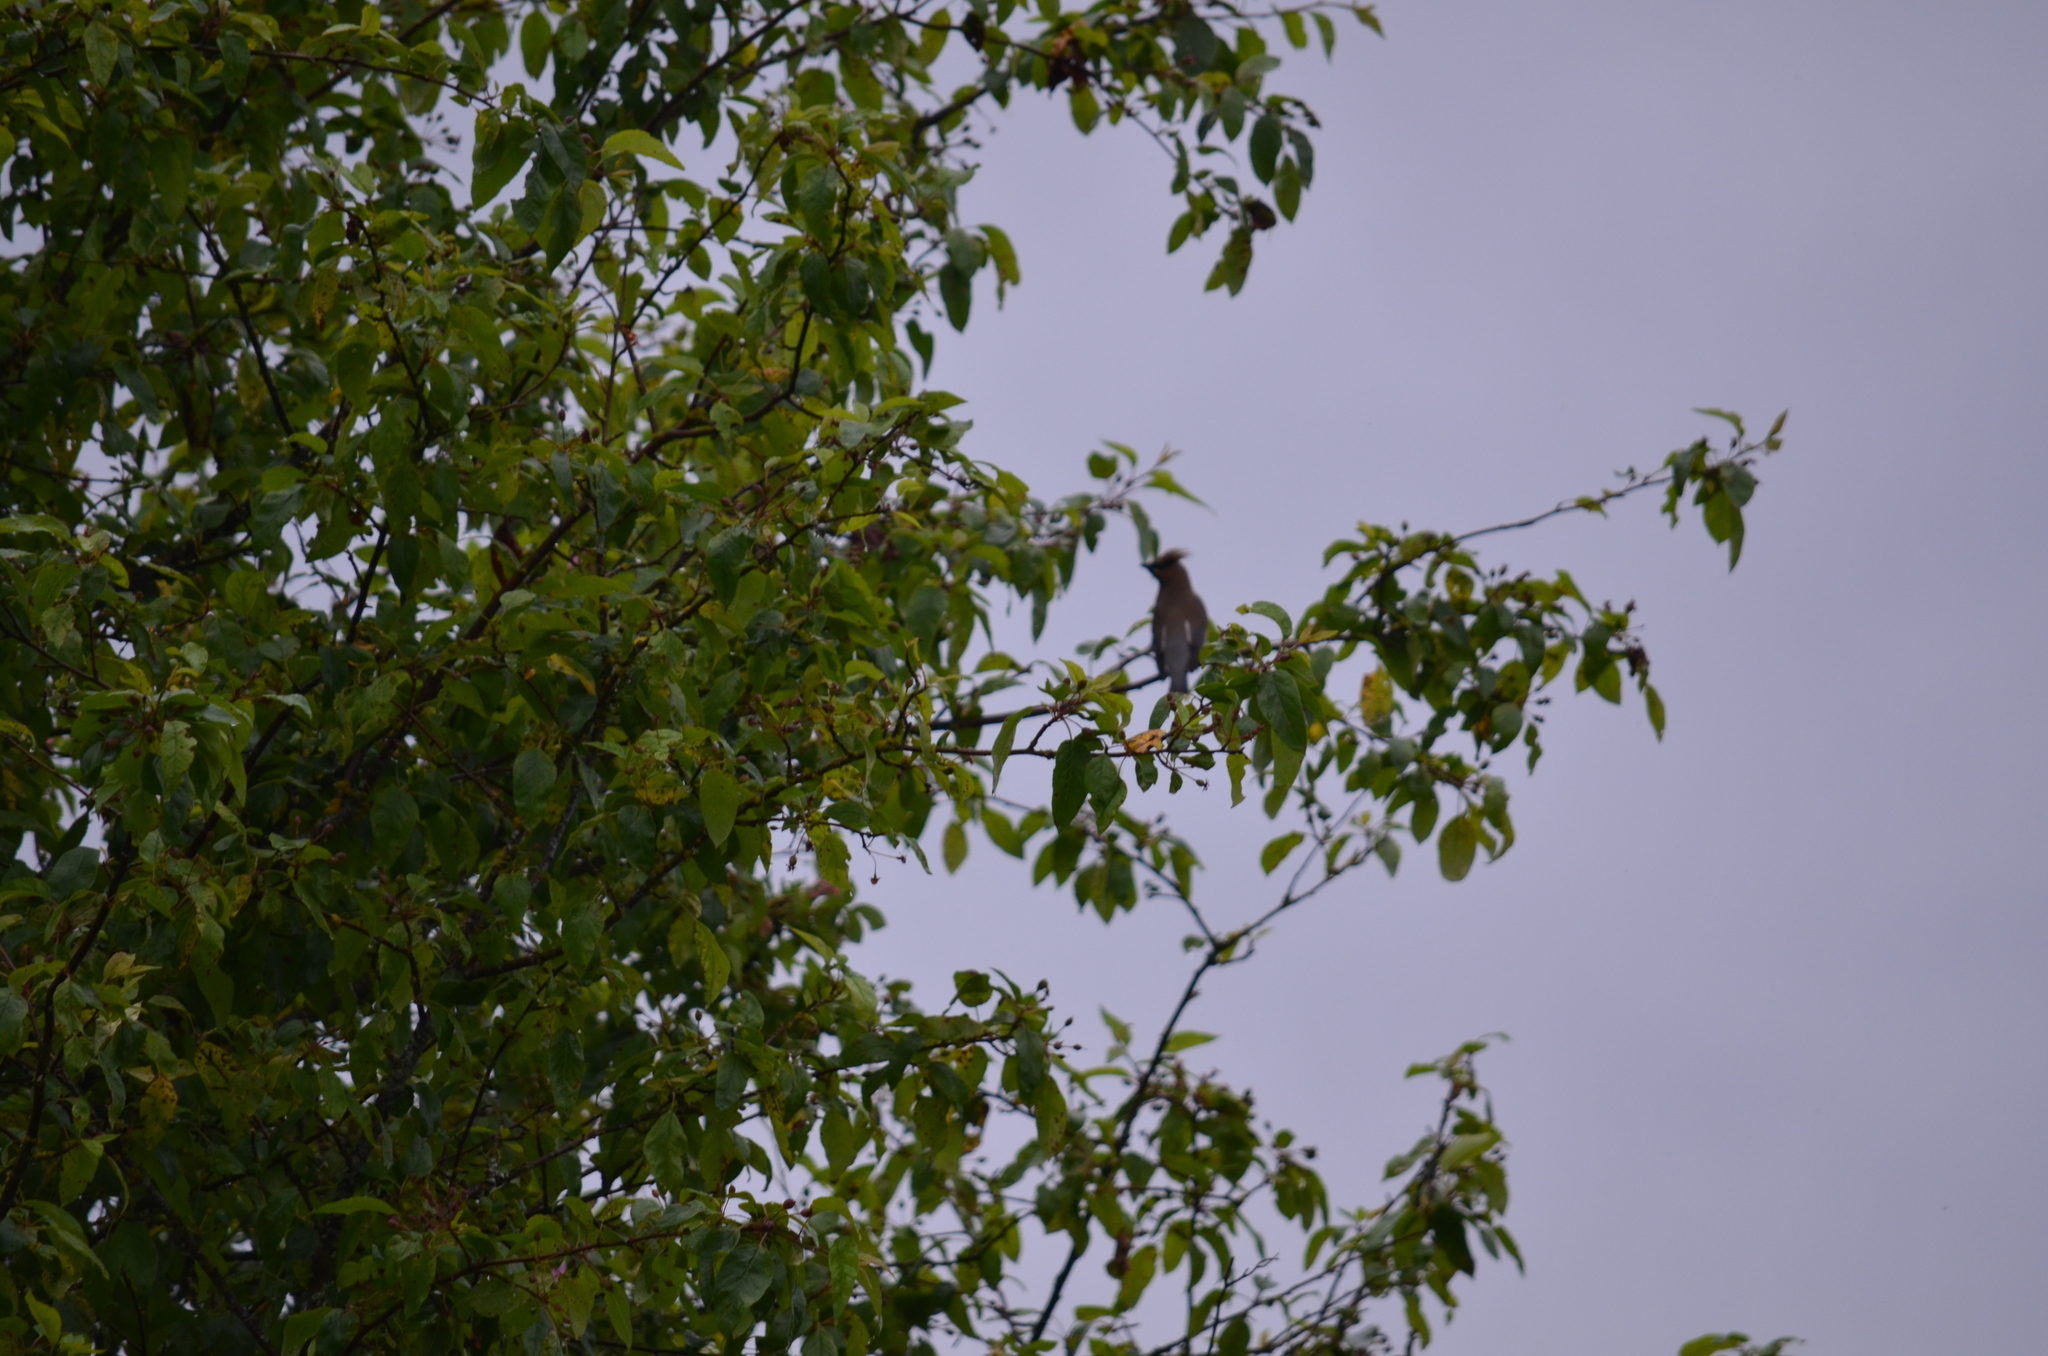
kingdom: Animalia
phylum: Chordata
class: Aves
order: Passeriformes
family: Bombycillidae
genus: Bombycilla
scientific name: Bombycilla cedrorum
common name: Cedar waxwing
